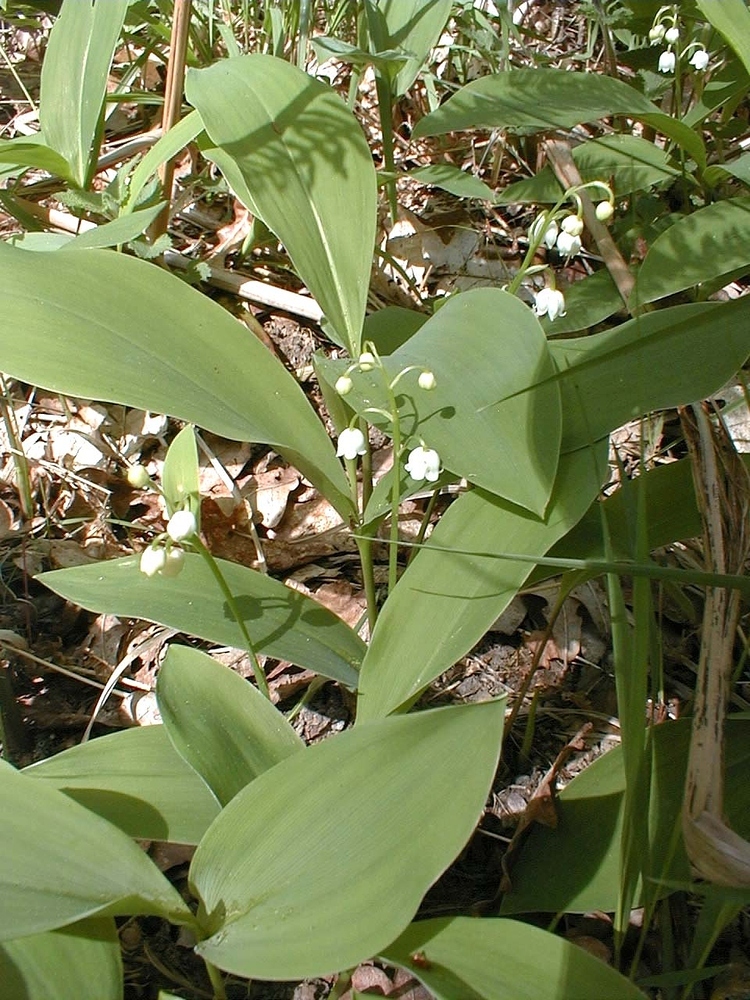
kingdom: Plantae
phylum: Tracheophyta
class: Liliopsida
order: Asparagales
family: Asparagaceae
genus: Convallaria
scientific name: Convallaria majalis
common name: Lily-of-the-valley
